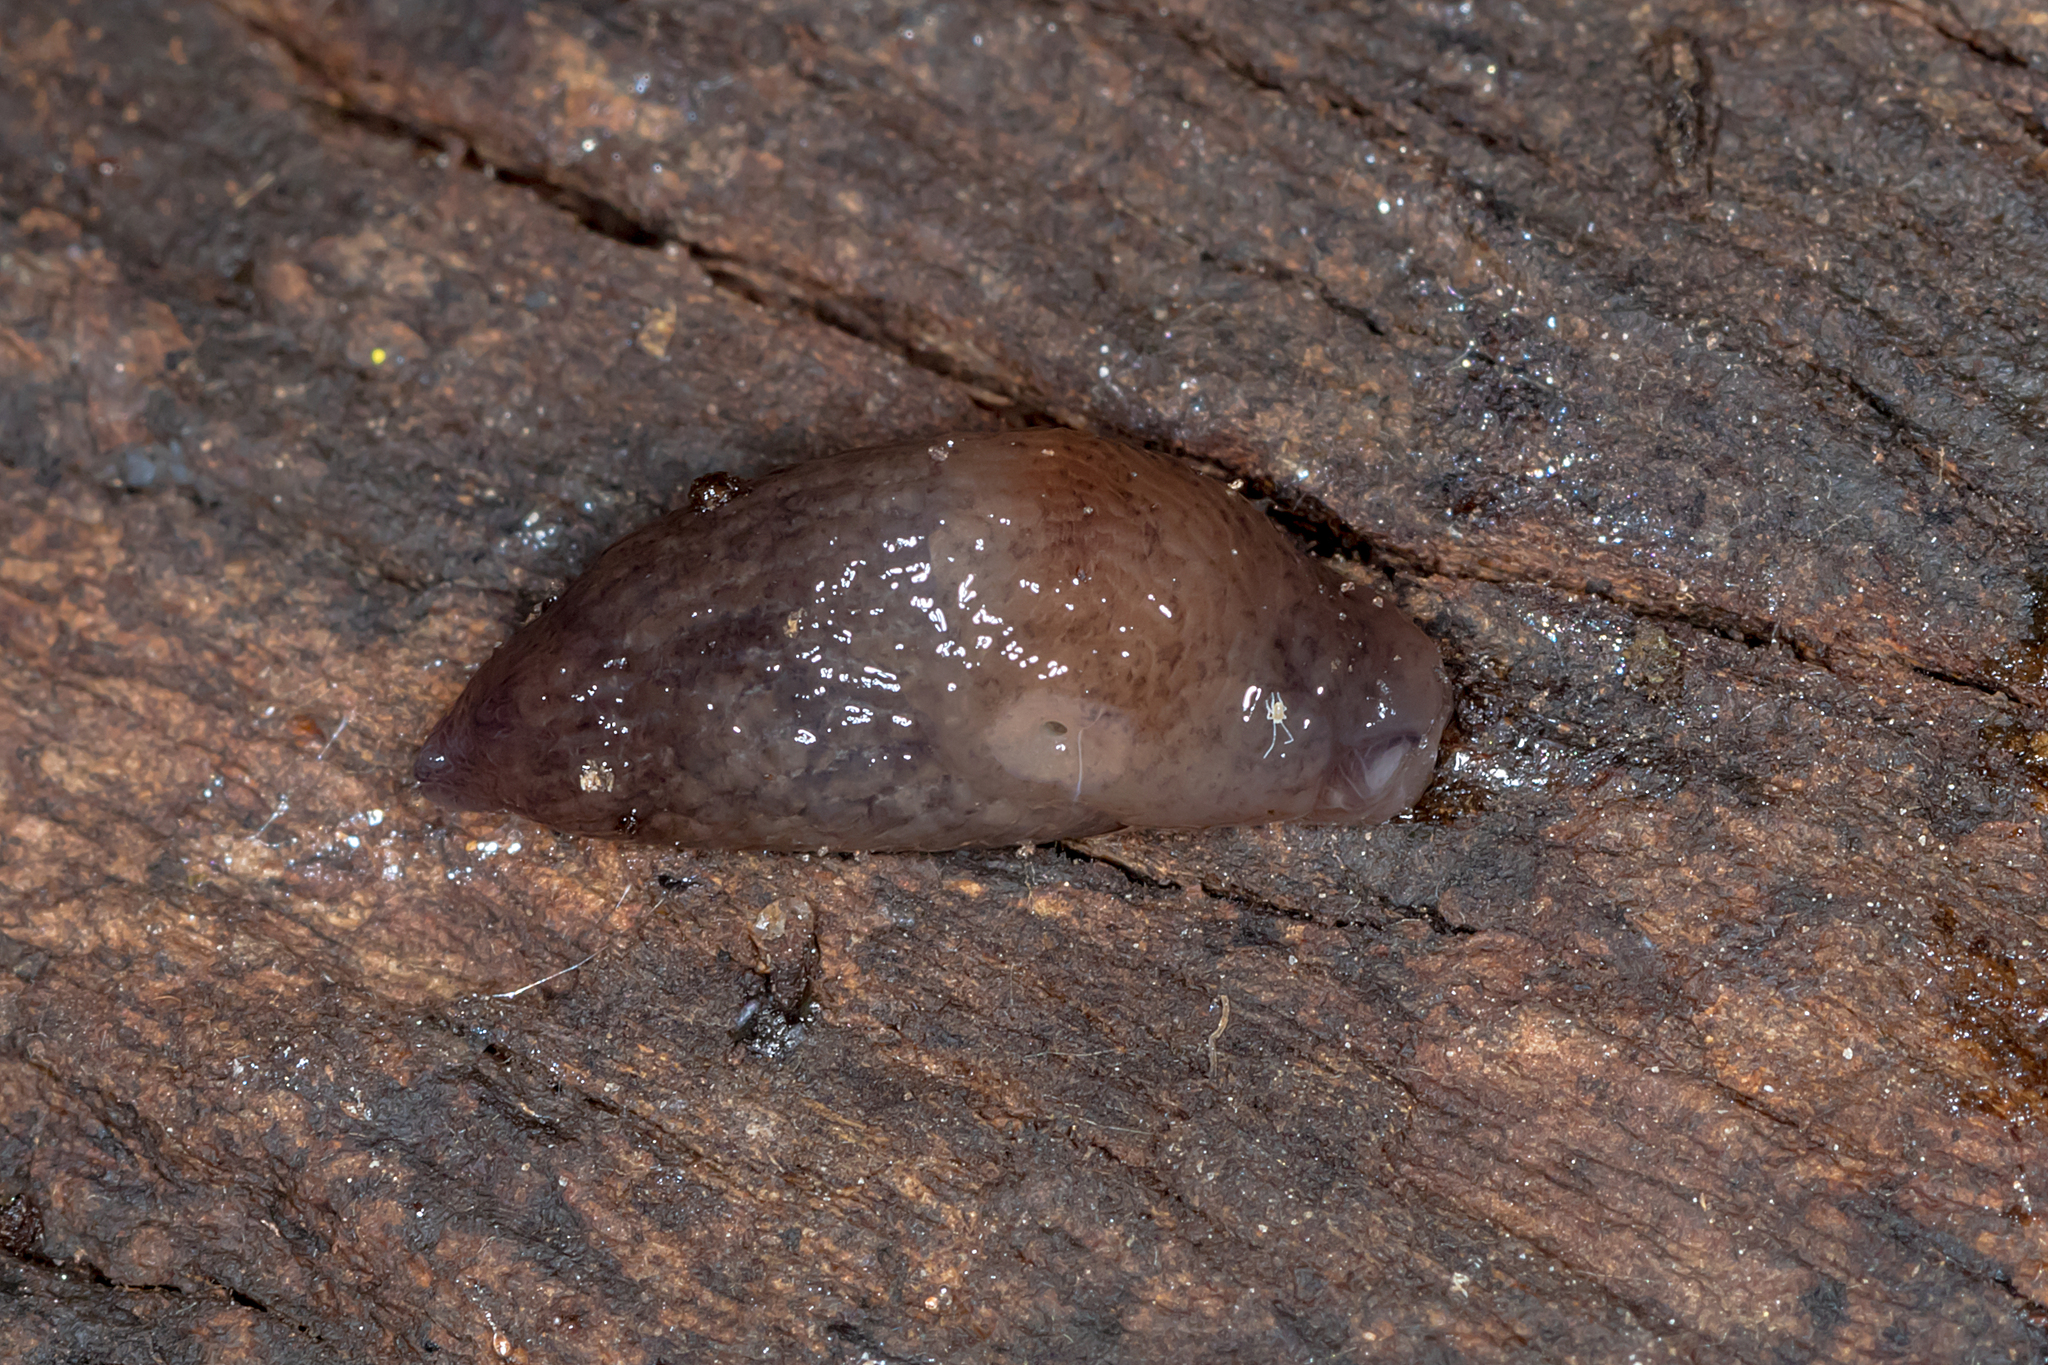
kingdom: Animalia
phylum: Mollusca
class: Gastropoda
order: Stylommatophora
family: Agriolimacidae
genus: Deroceras
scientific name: Deroceras
